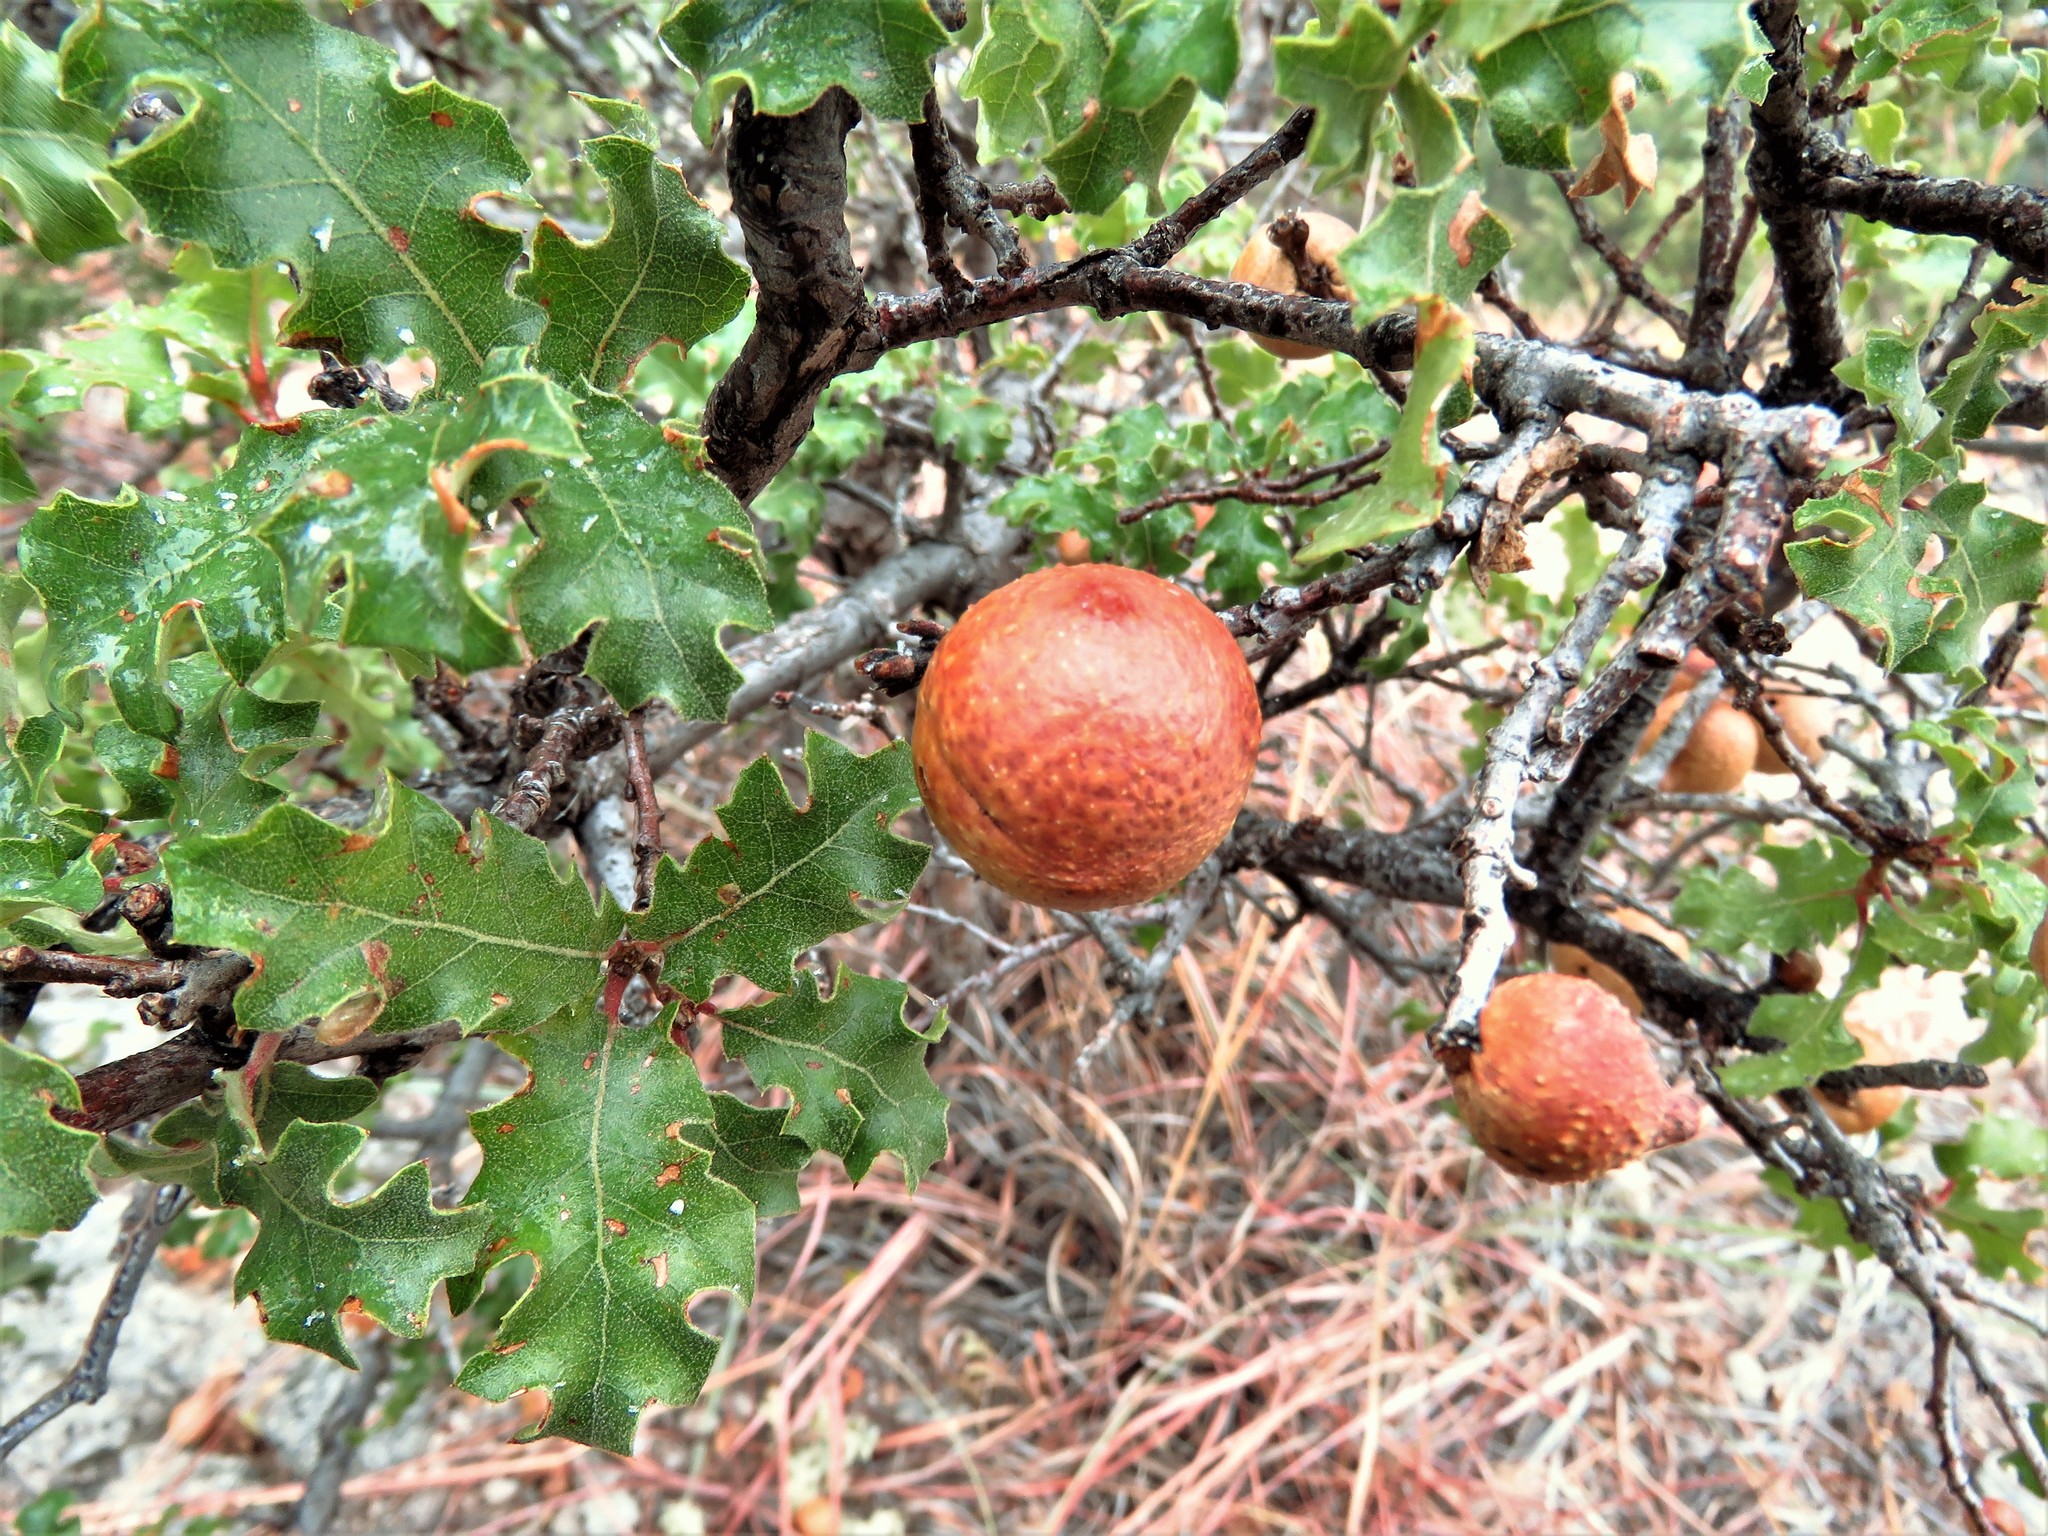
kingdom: Plantae
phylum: Tracheophyta
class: Magnoliopsida
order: Fagales
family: Fagaceae
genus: Quercus
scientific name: Quercus pungens
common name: Pungent oak
